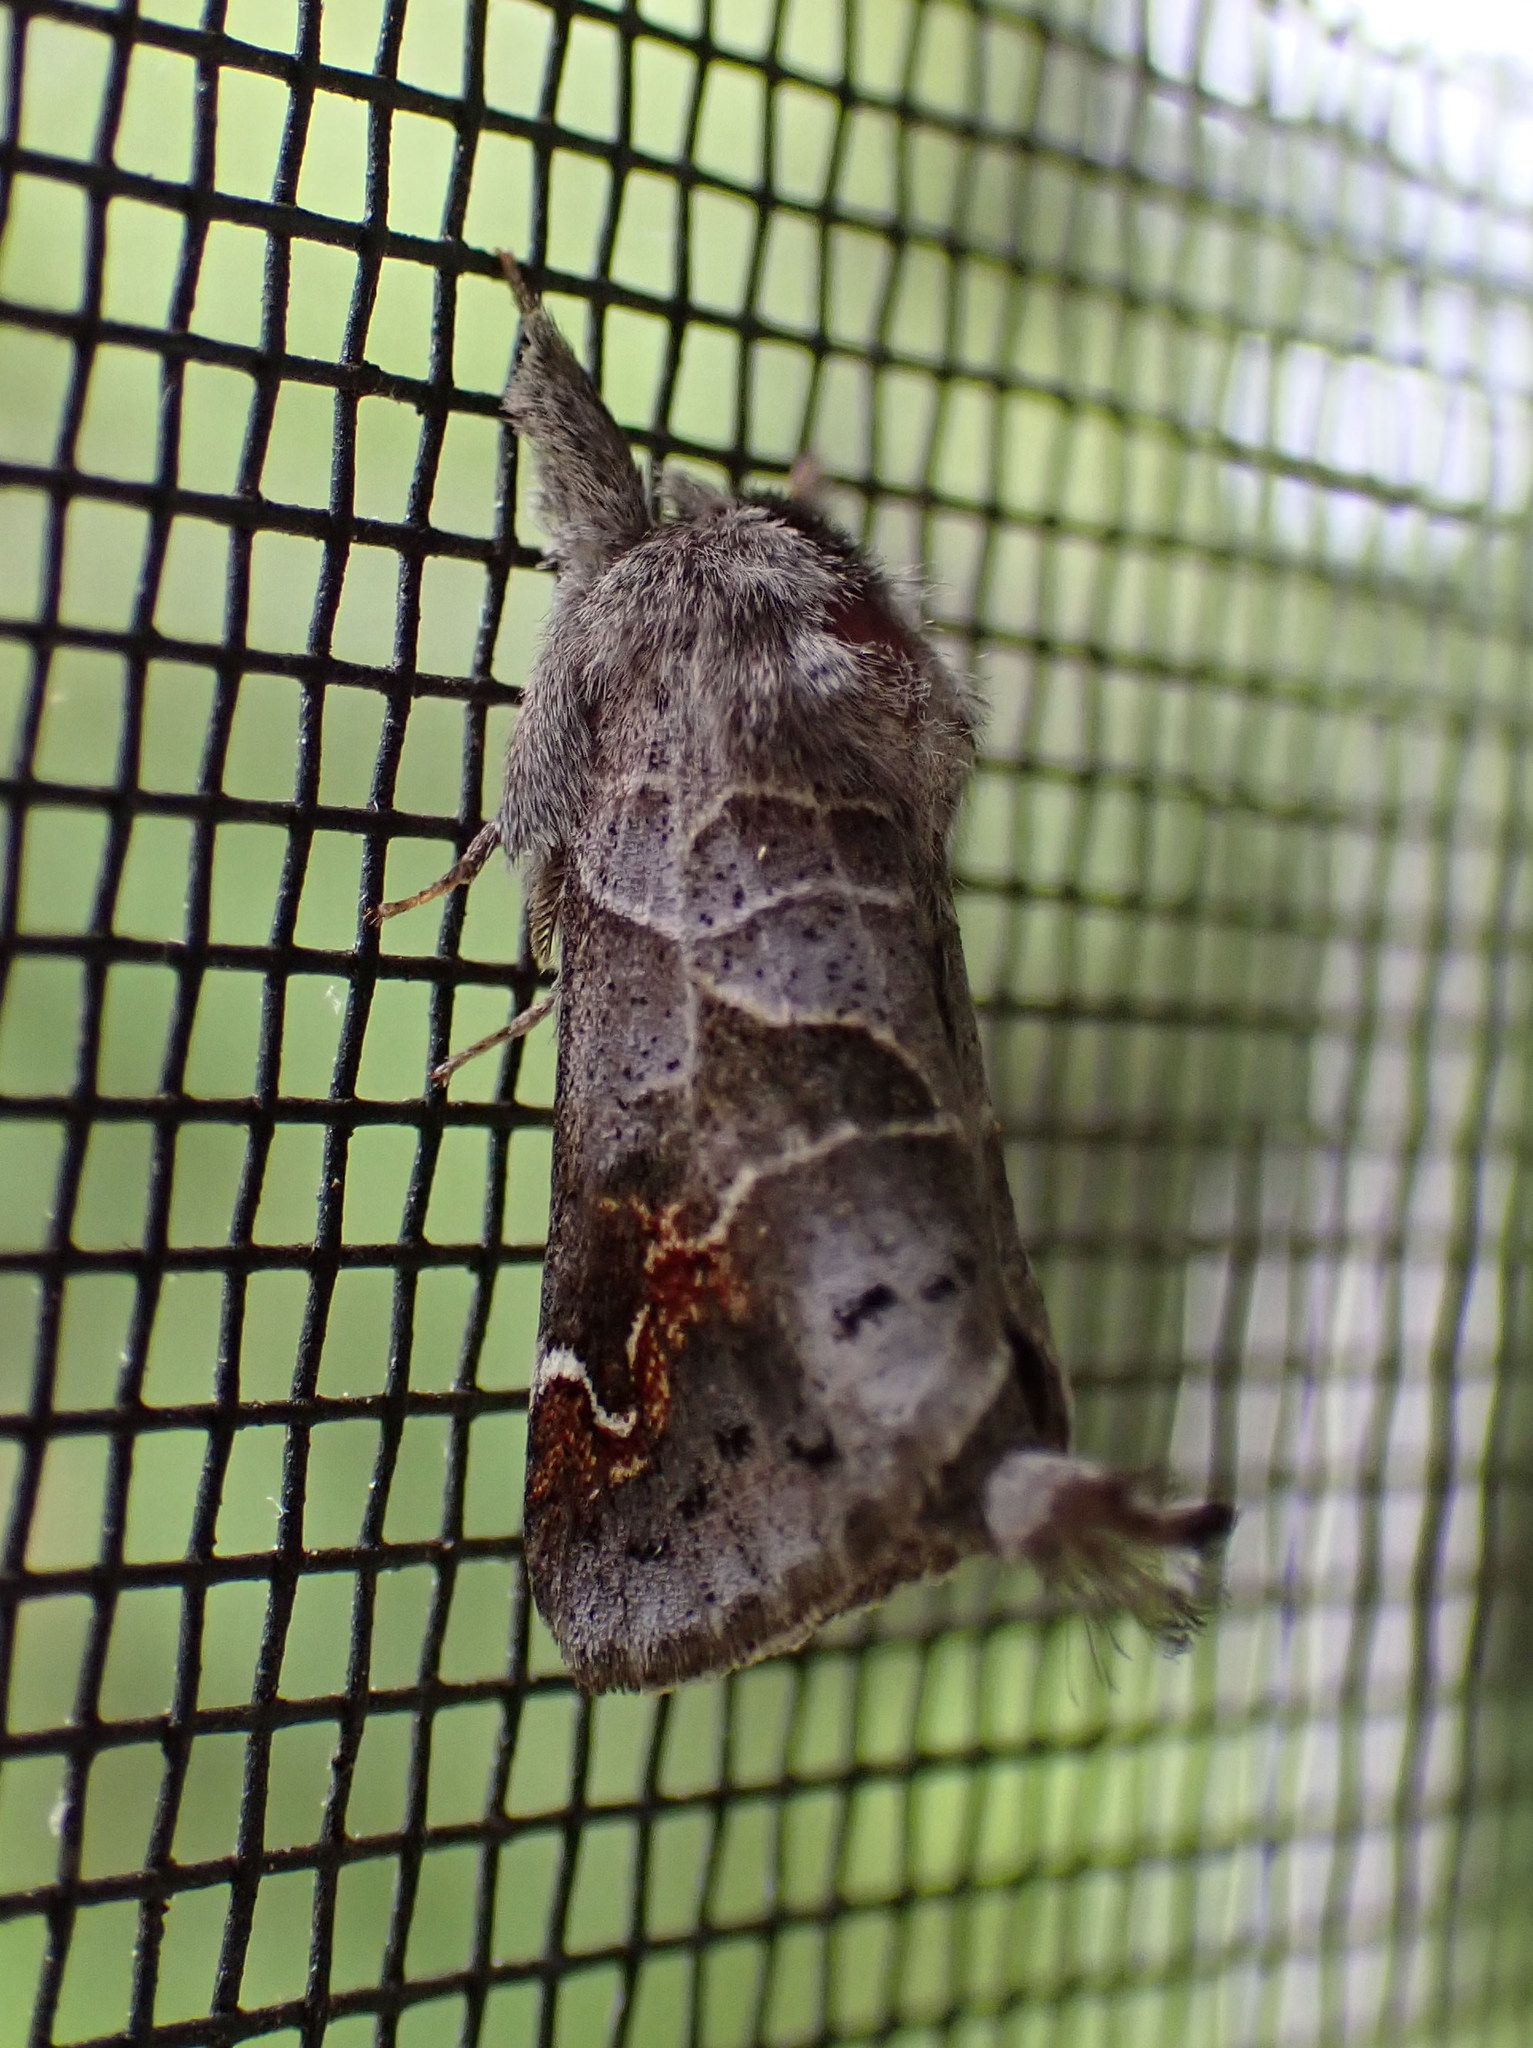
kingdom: Animalia
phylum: Arthropoda
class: Insecta
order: Lepidoptera
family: Notodontidae
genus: Clostera
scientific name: Clostera apicalis
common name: Apical prominent
